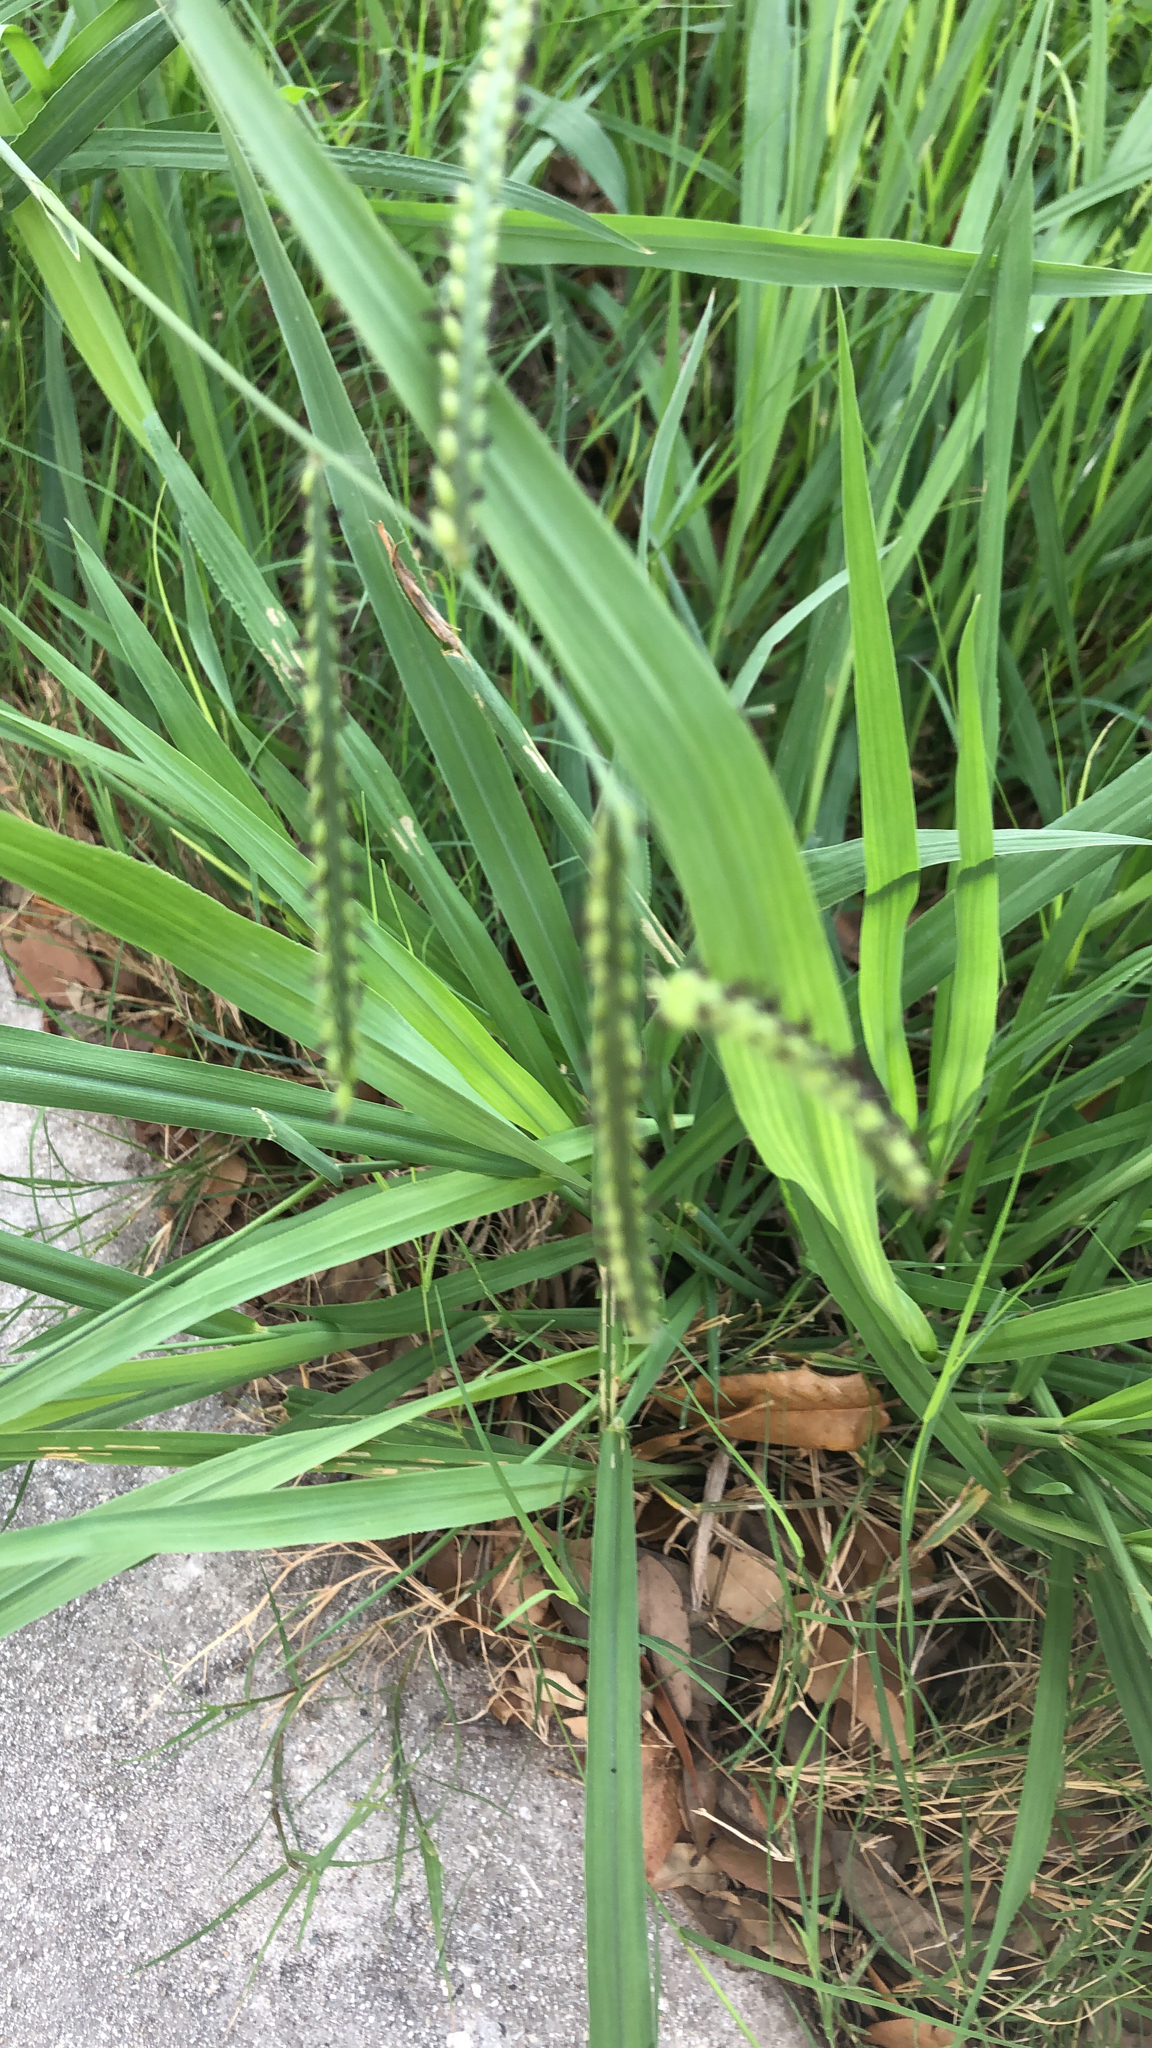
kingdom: Plantae
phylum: Tracheophyta
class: Liliopsida
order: Poales
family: Poaceae
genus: Paspalum
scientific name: Paspalum dilatatum
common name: Dallisgrass
